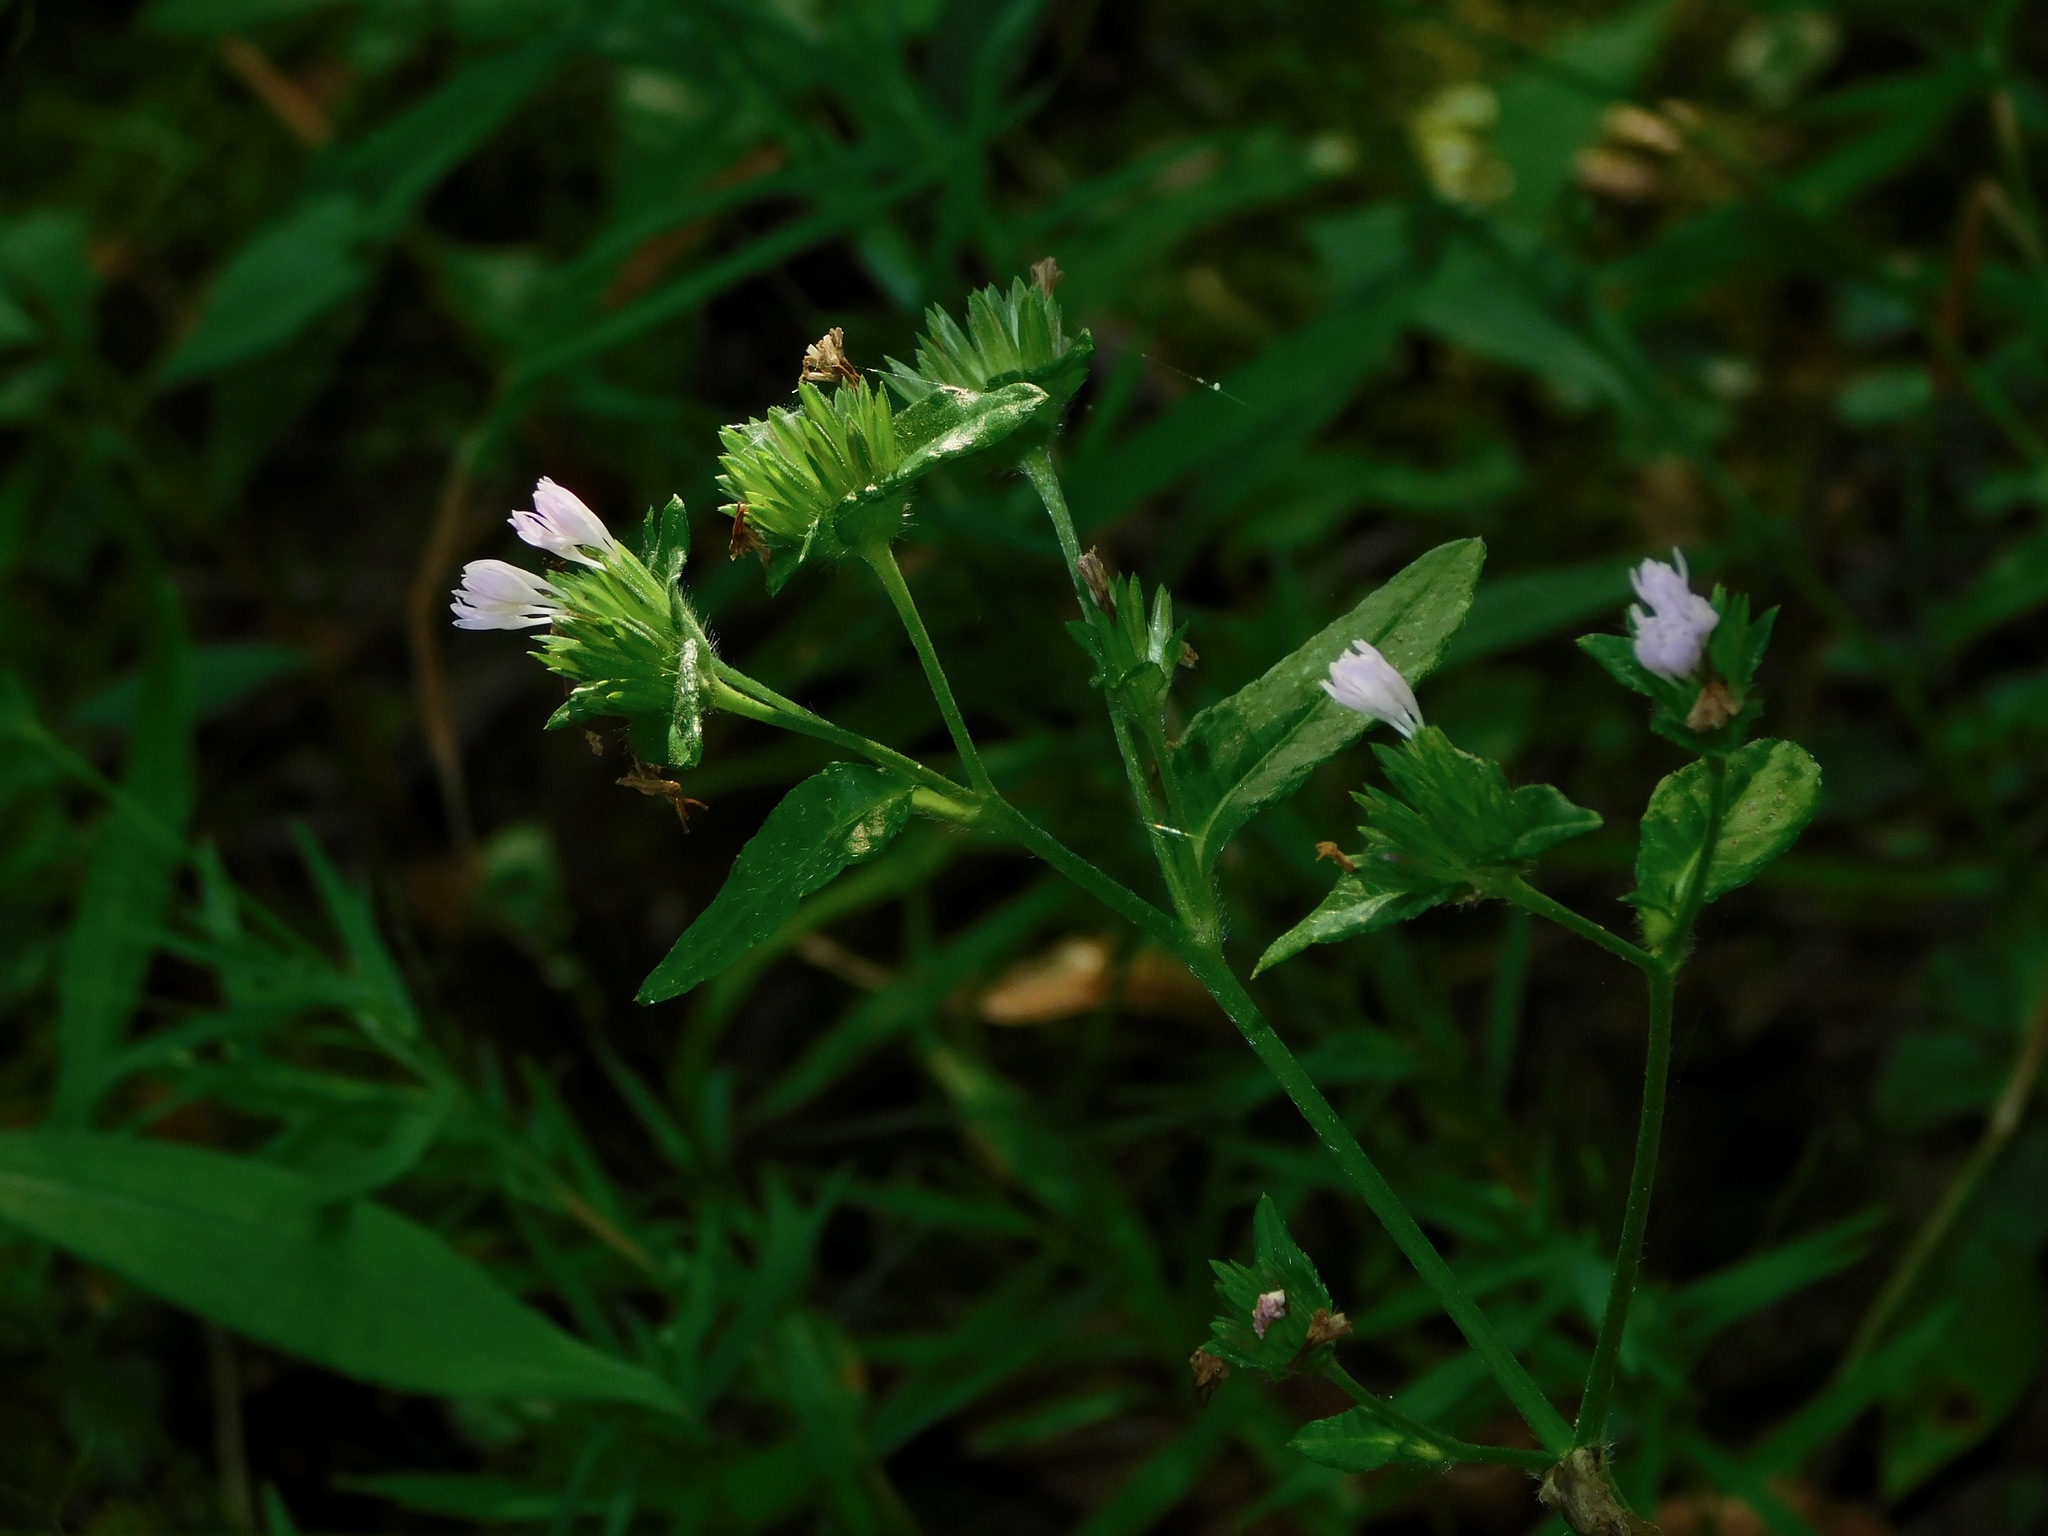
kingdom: Plantae
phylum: Tracheophyta
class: Magnoliopsida
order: Asterales
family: Asteraceae
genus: Elephantopus
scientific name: Elephantopus carolinianus
